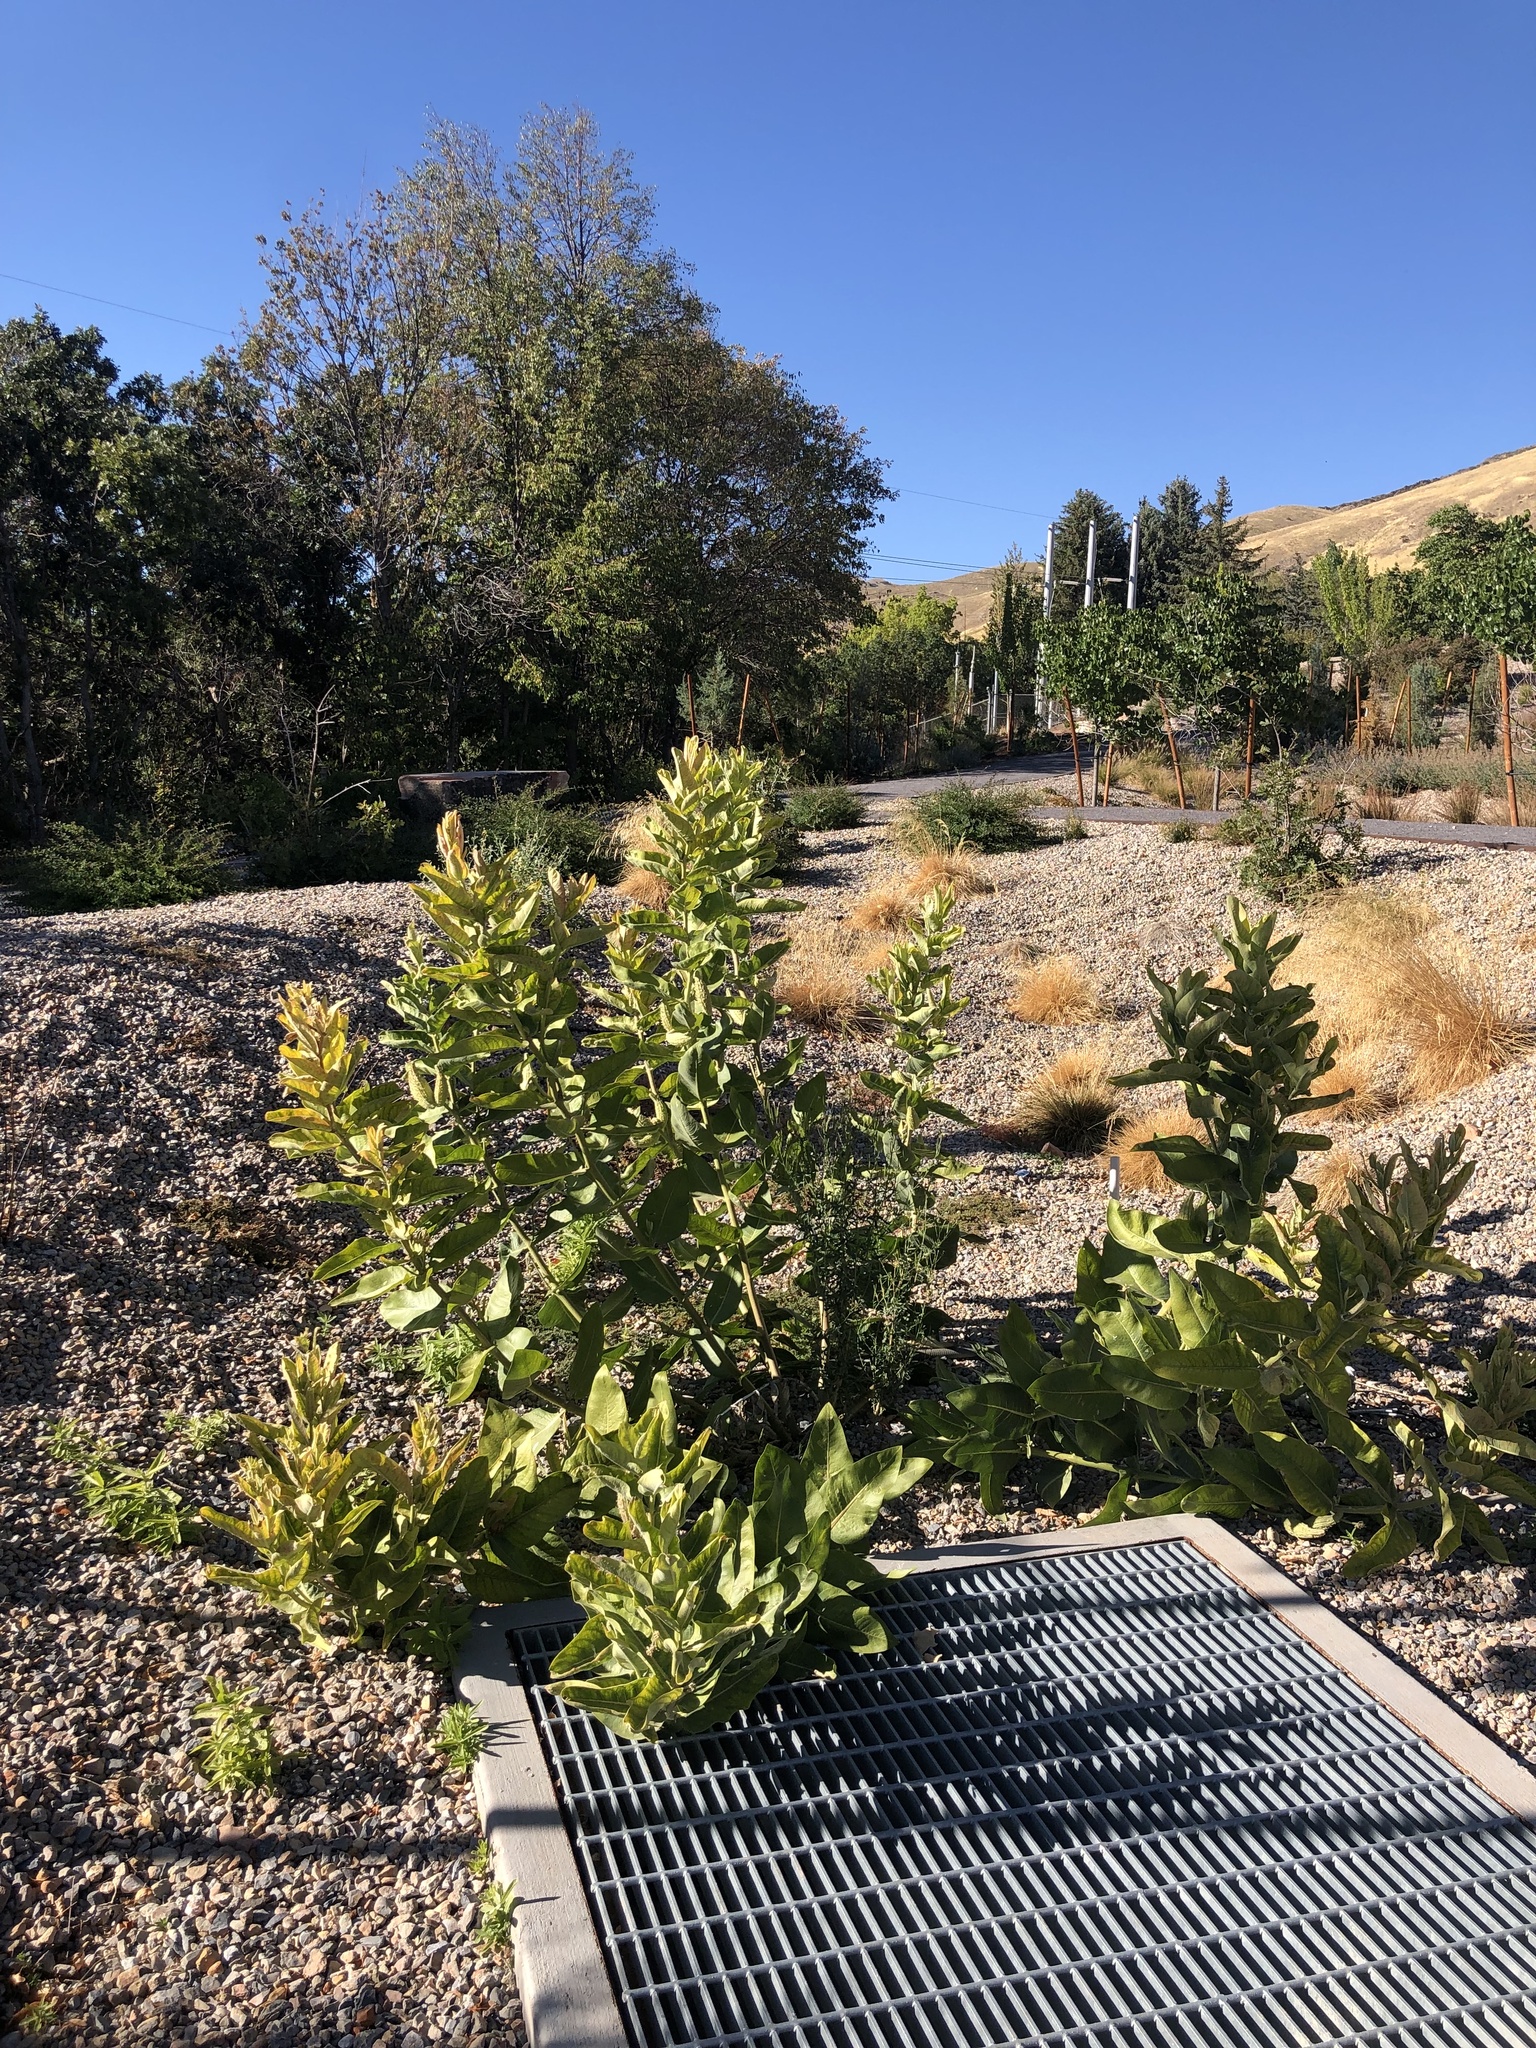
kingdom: Plantae
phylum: Tracheophyta
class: Magnoliopsida
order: Gentianales
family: Apocynaceae
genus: Asclepias
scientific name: Asclepias speciosa
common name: Showy milkweed
